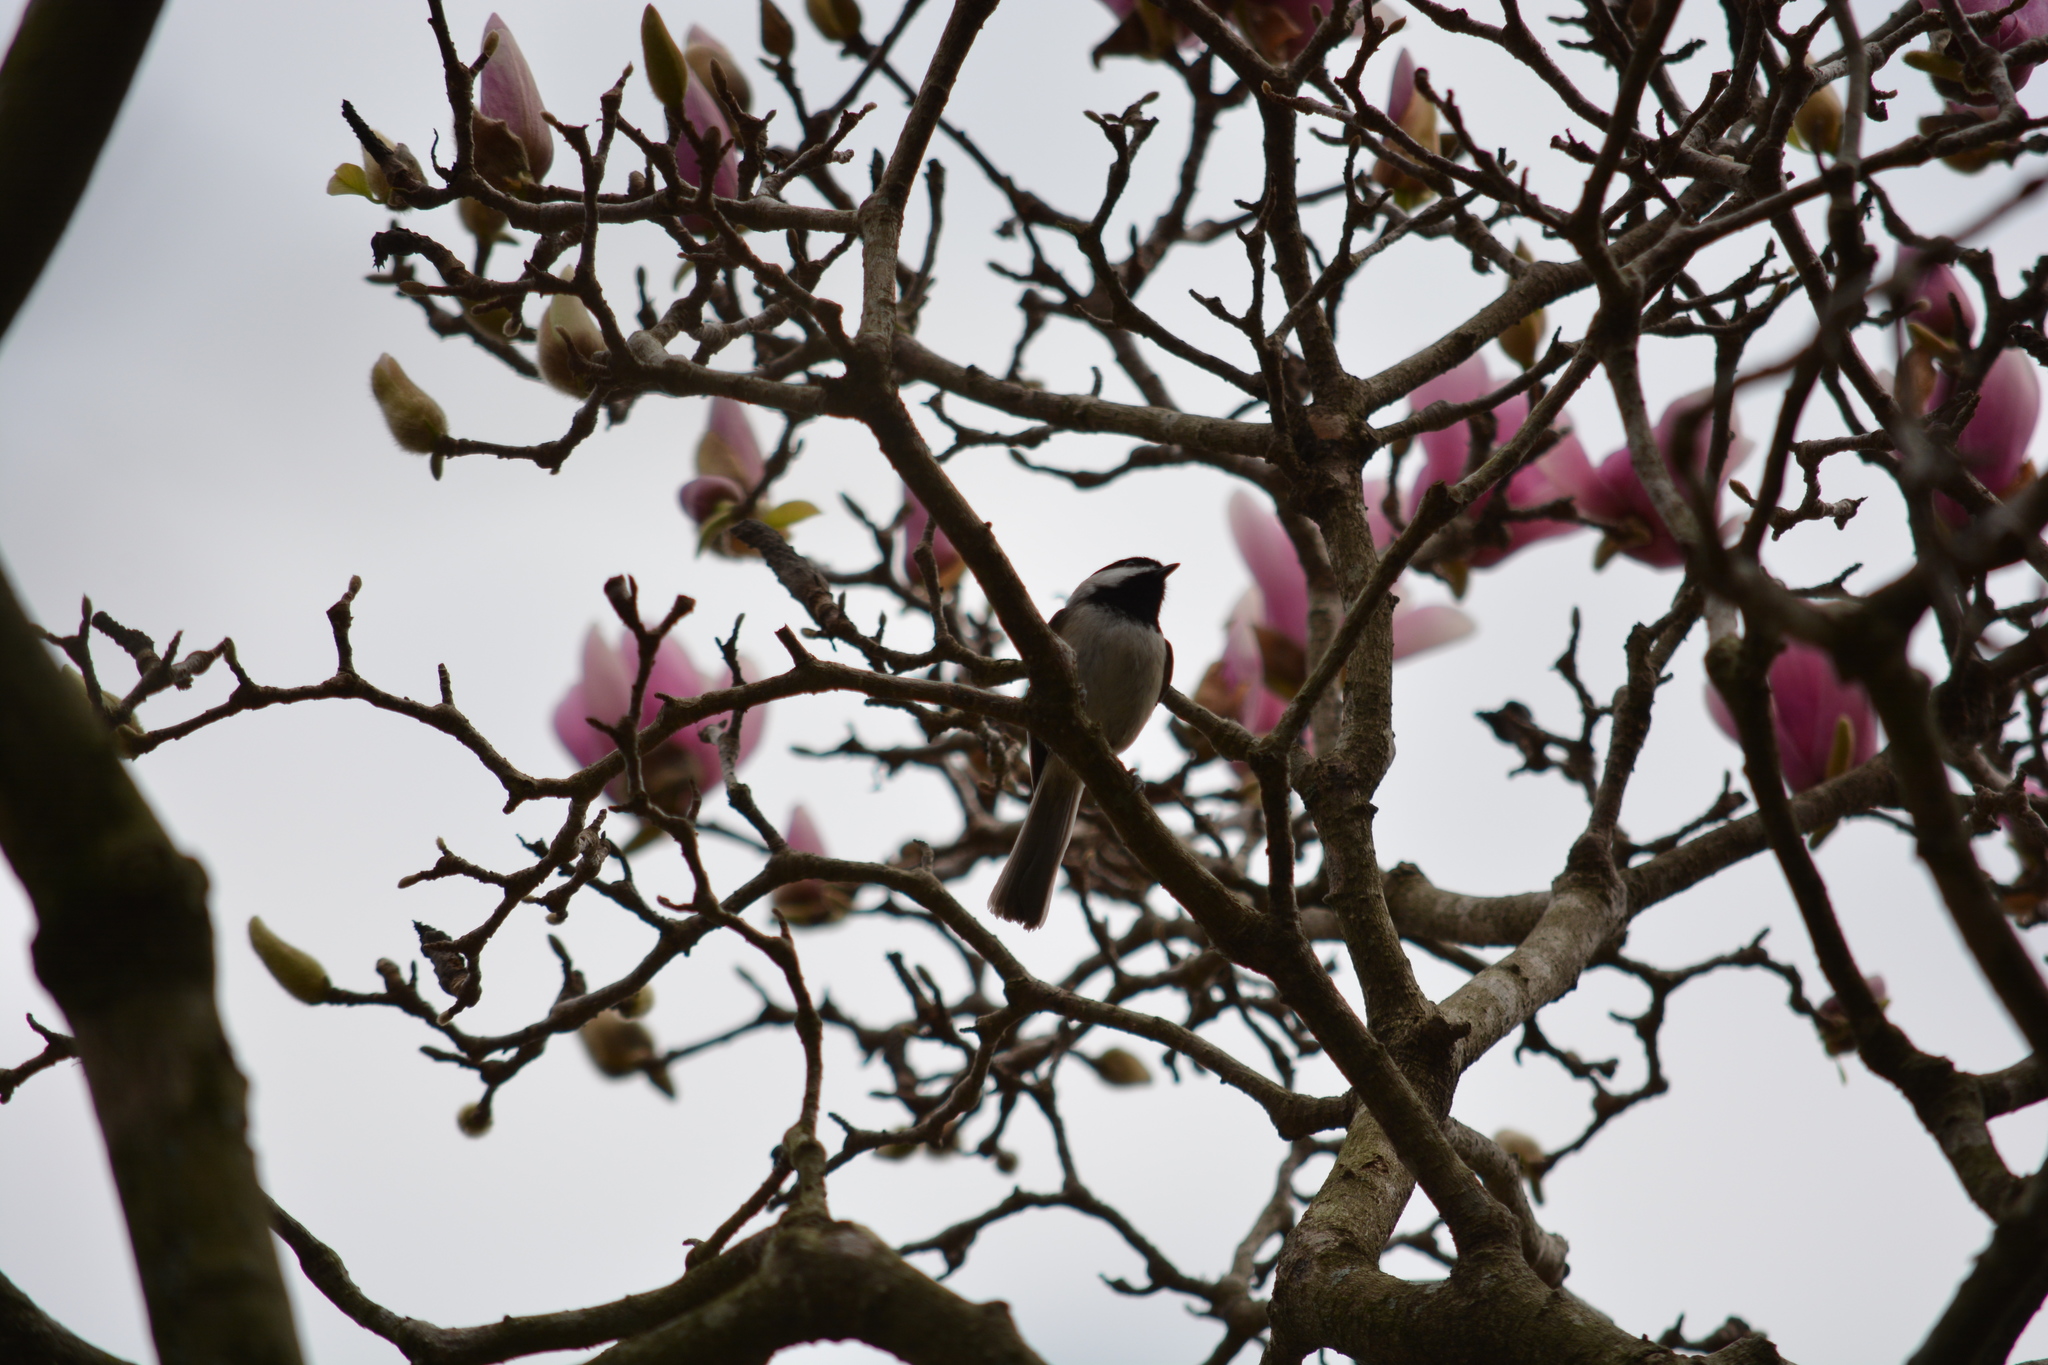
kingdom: Animalia
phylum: Chordata
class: Aves
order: Passeriformes
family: Paridae
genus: Poecile
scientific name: Poecile carolinensis
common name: Carolina chickadee
